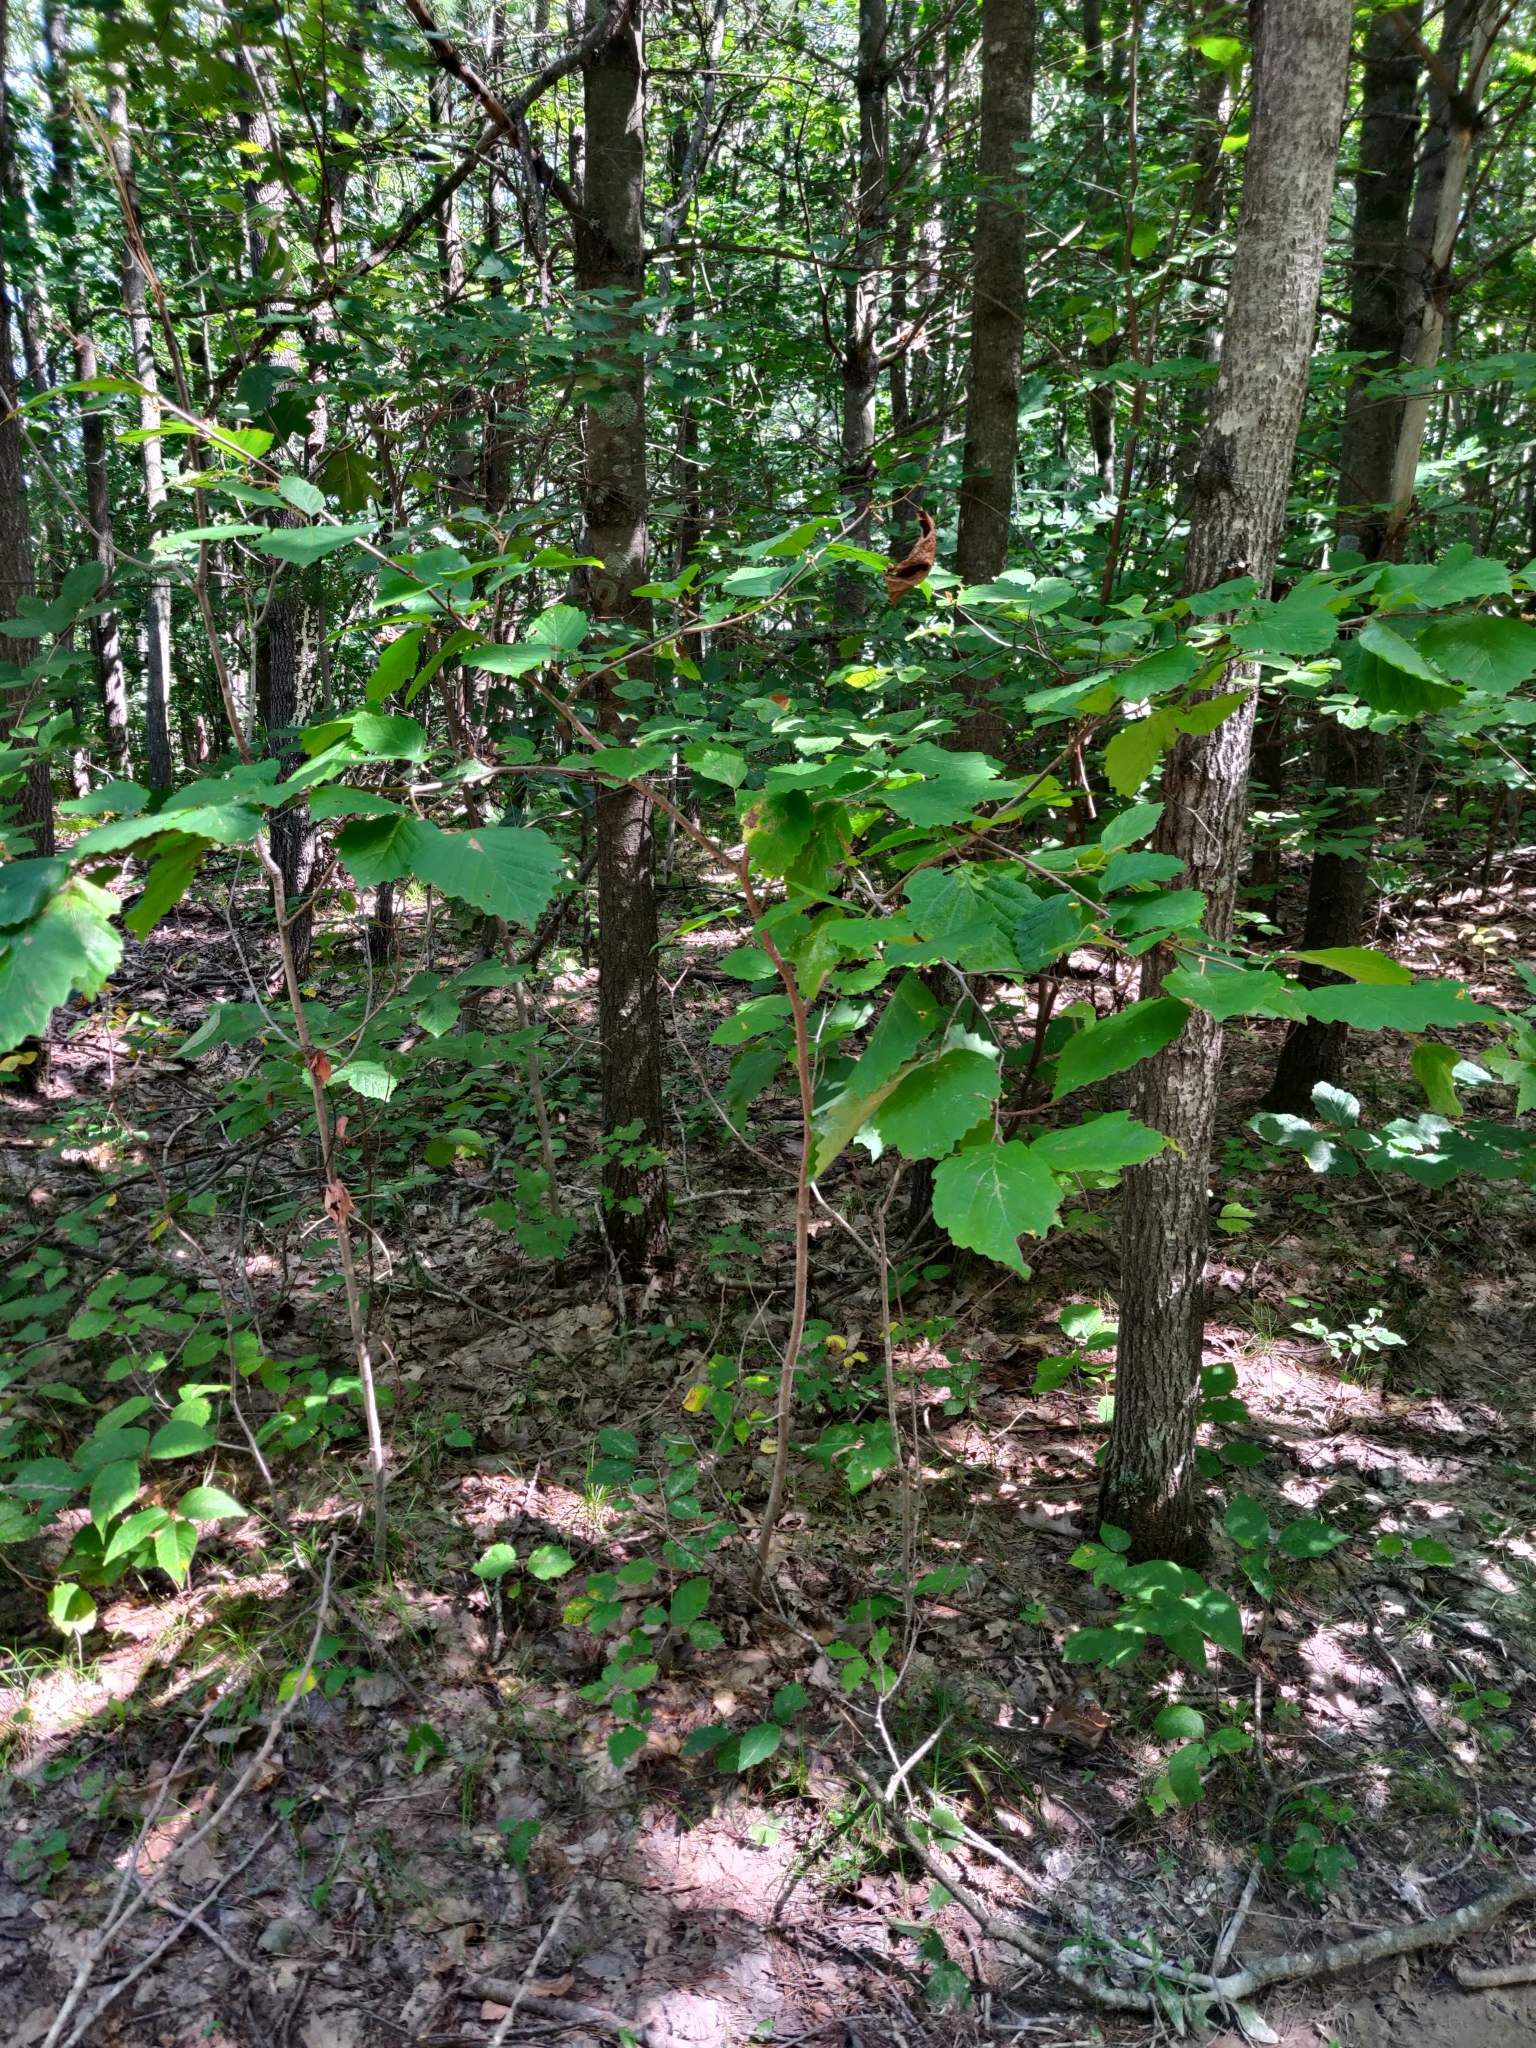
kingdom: Plantae
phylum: Tracheophyta
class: Magnoliopsida
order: Saxifragales
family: Hamamelidaceae
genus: Hamamelis
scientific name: Hamamelis virginiana
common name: Witch-hazel
